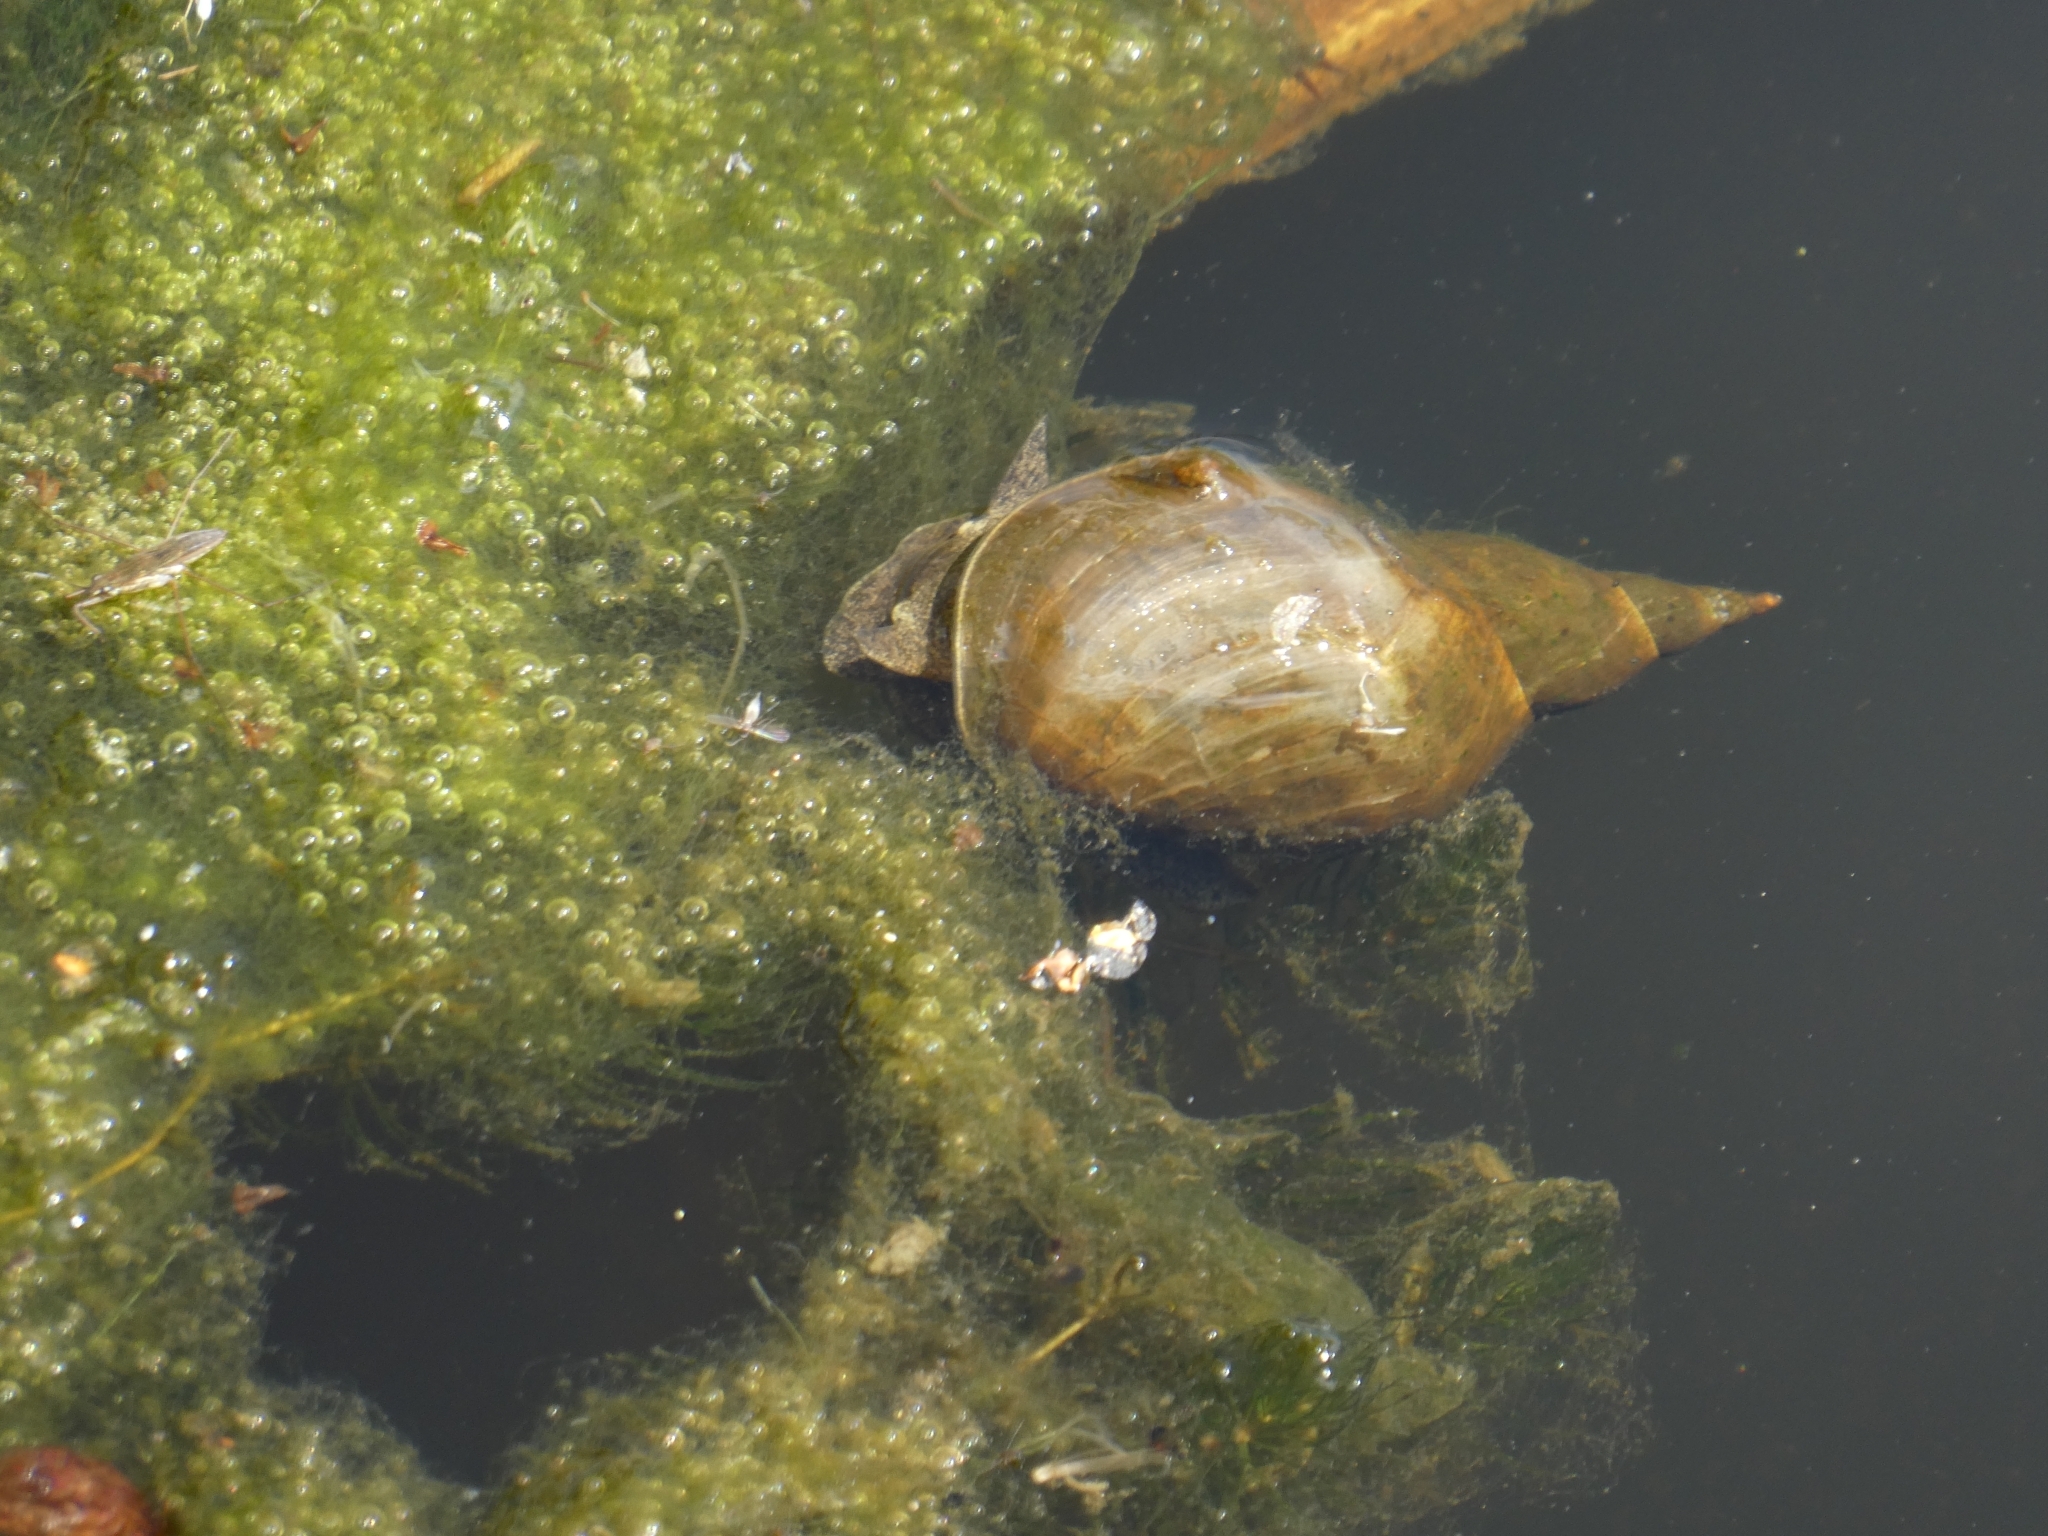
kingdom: Animalia
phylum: Mollusca
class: Gastropoda
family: Lymnaeidae
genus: Lymnaea
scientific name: Lymnaea stagnalis
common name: Great pond snail
